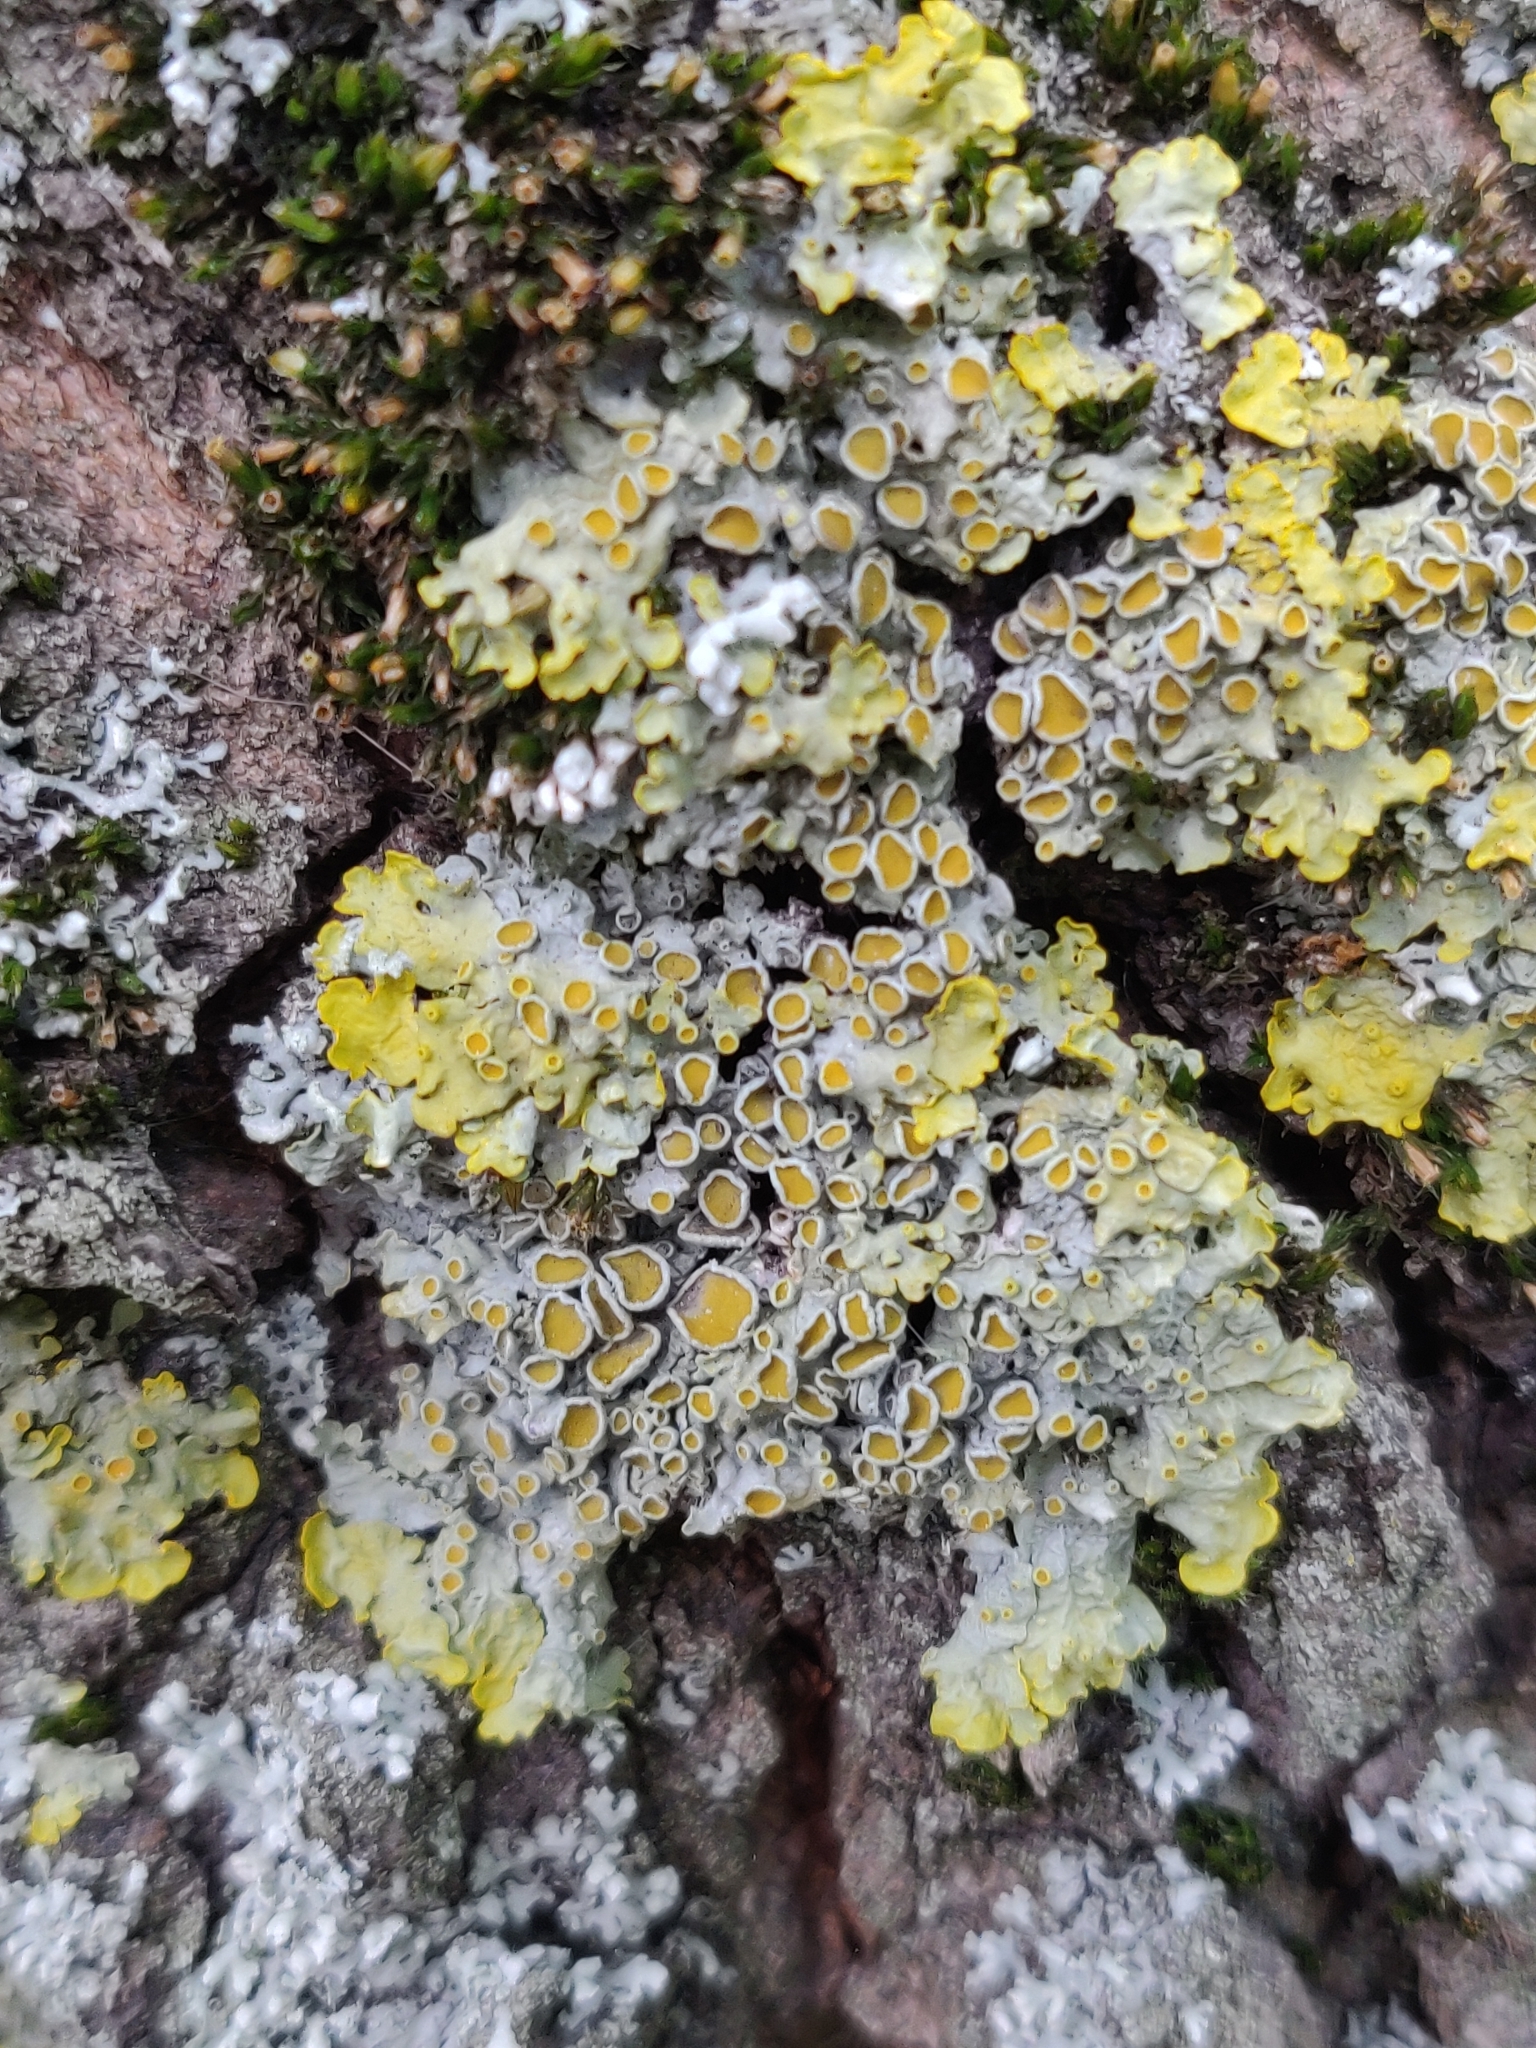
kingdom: Fungi
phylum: Ascomycota
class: Lecanoromycetes
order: Teloschistales
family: Teloschistaceae
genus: Xanthoria
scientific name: Xanthoria parietina
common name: Common orange lichen
